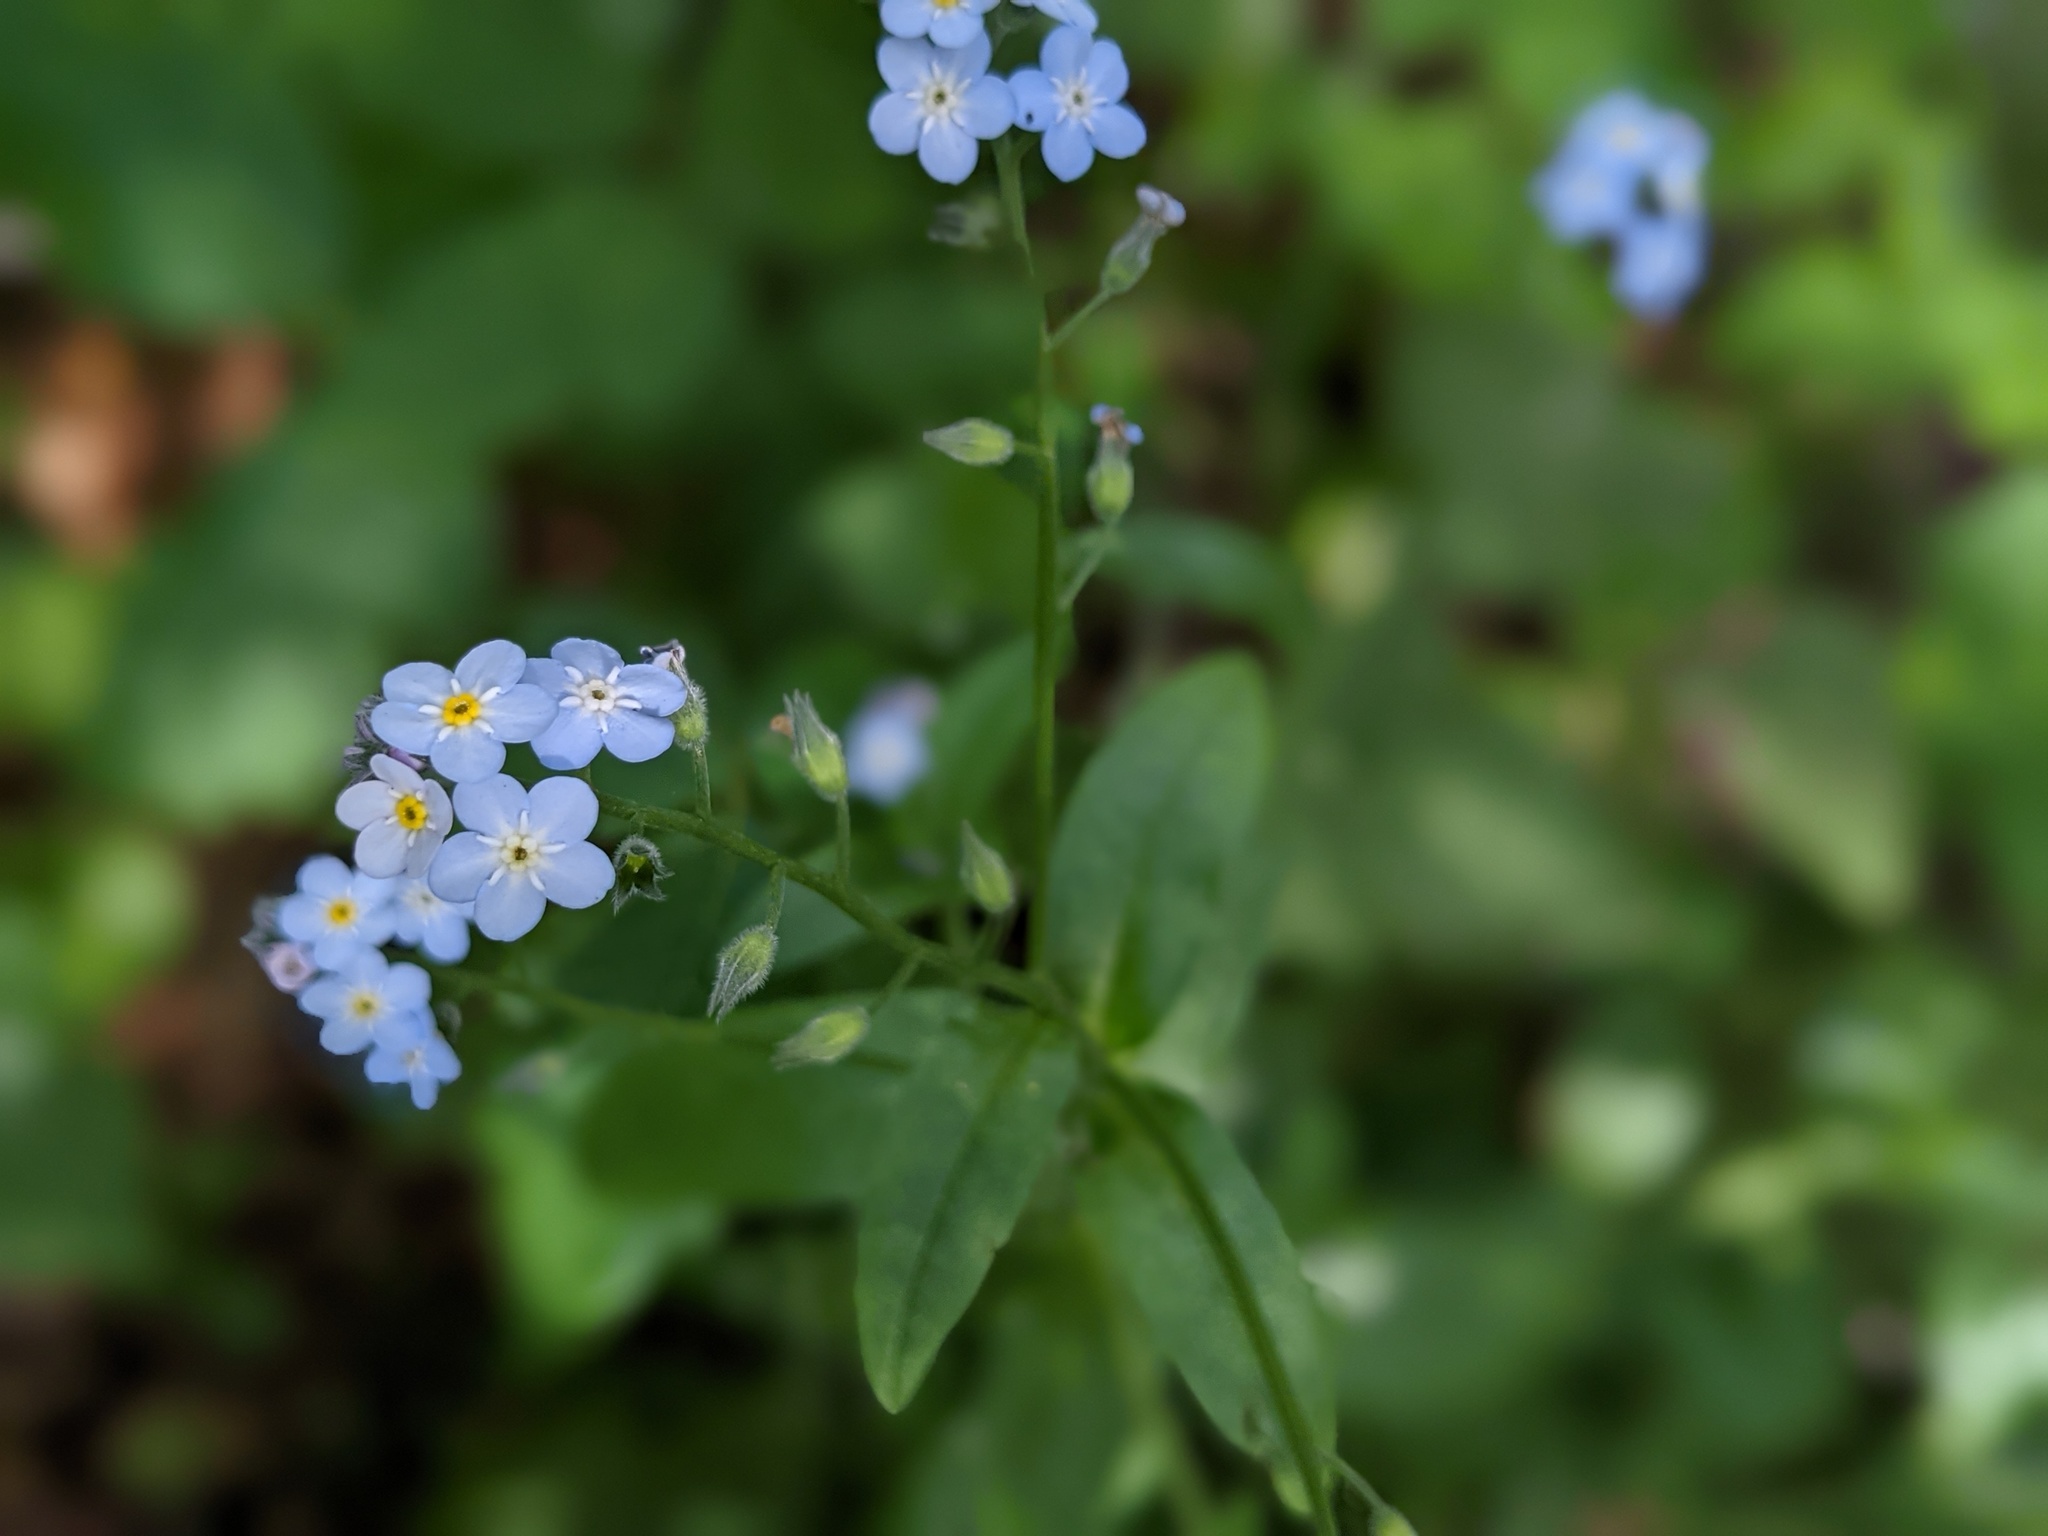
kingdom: Plantae
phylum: Tracheophyta
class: Magnoliopsida
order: Boraginales
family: Boraginaceae
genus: Myosotis
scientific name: Myosotis latifolia
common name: Broadleaf forget-me-not
